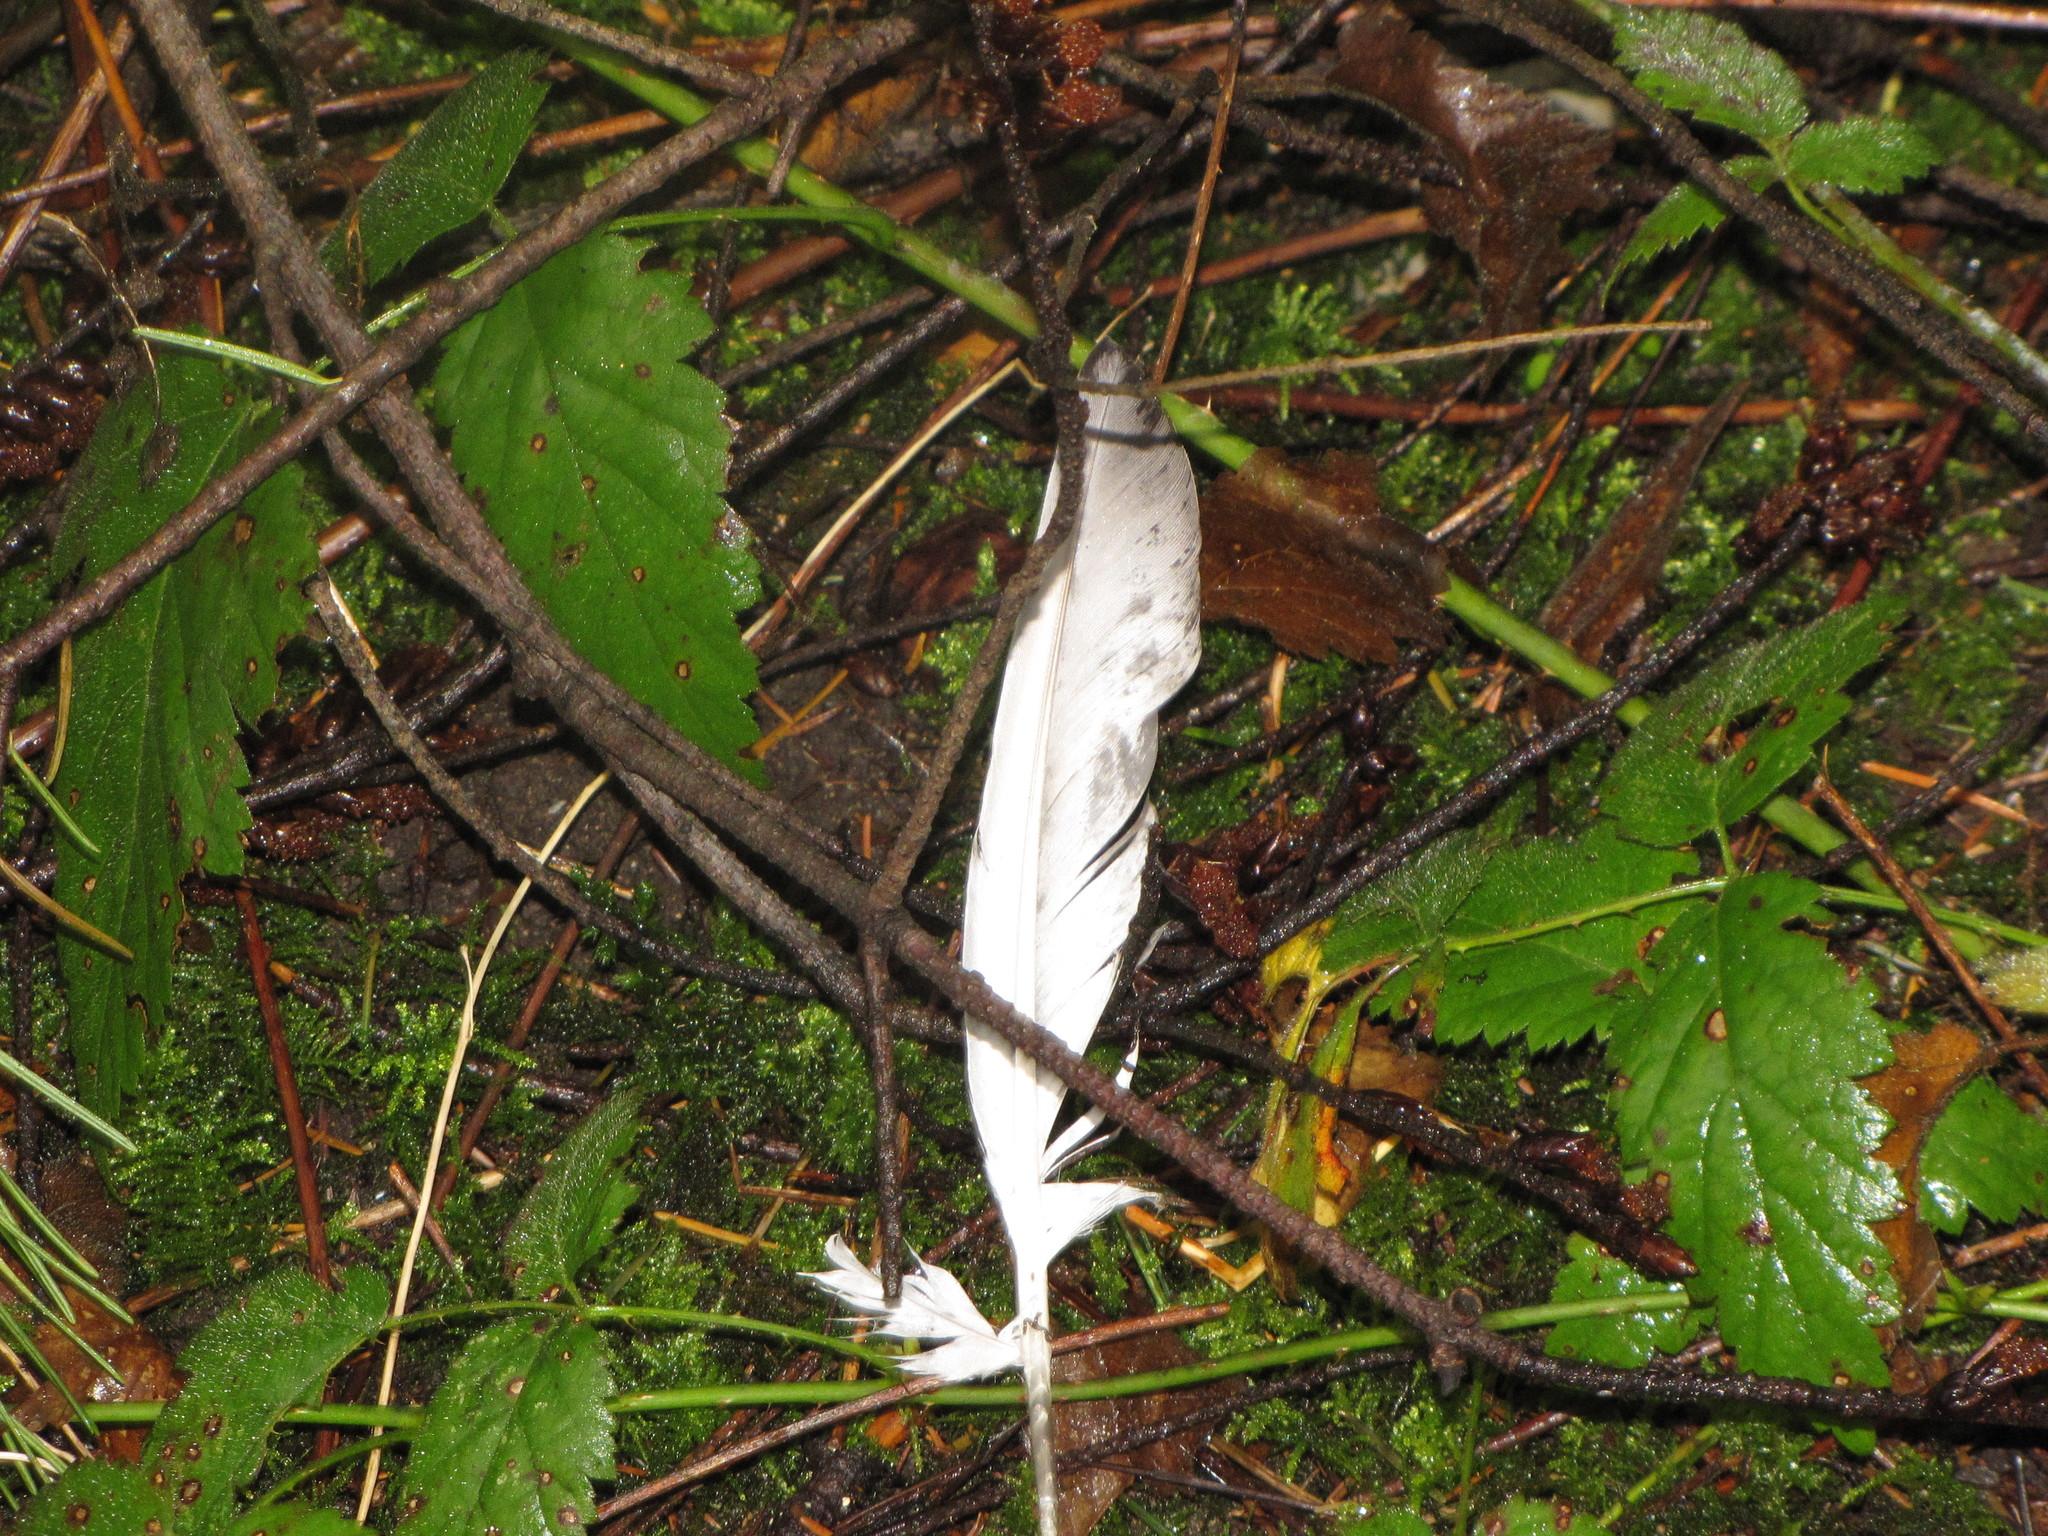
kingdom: Animalia
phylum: Chordata
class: Aves
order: Columbiformes
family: Columbidae
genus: Columba
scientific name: Columba livia
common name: Rock pigeon
